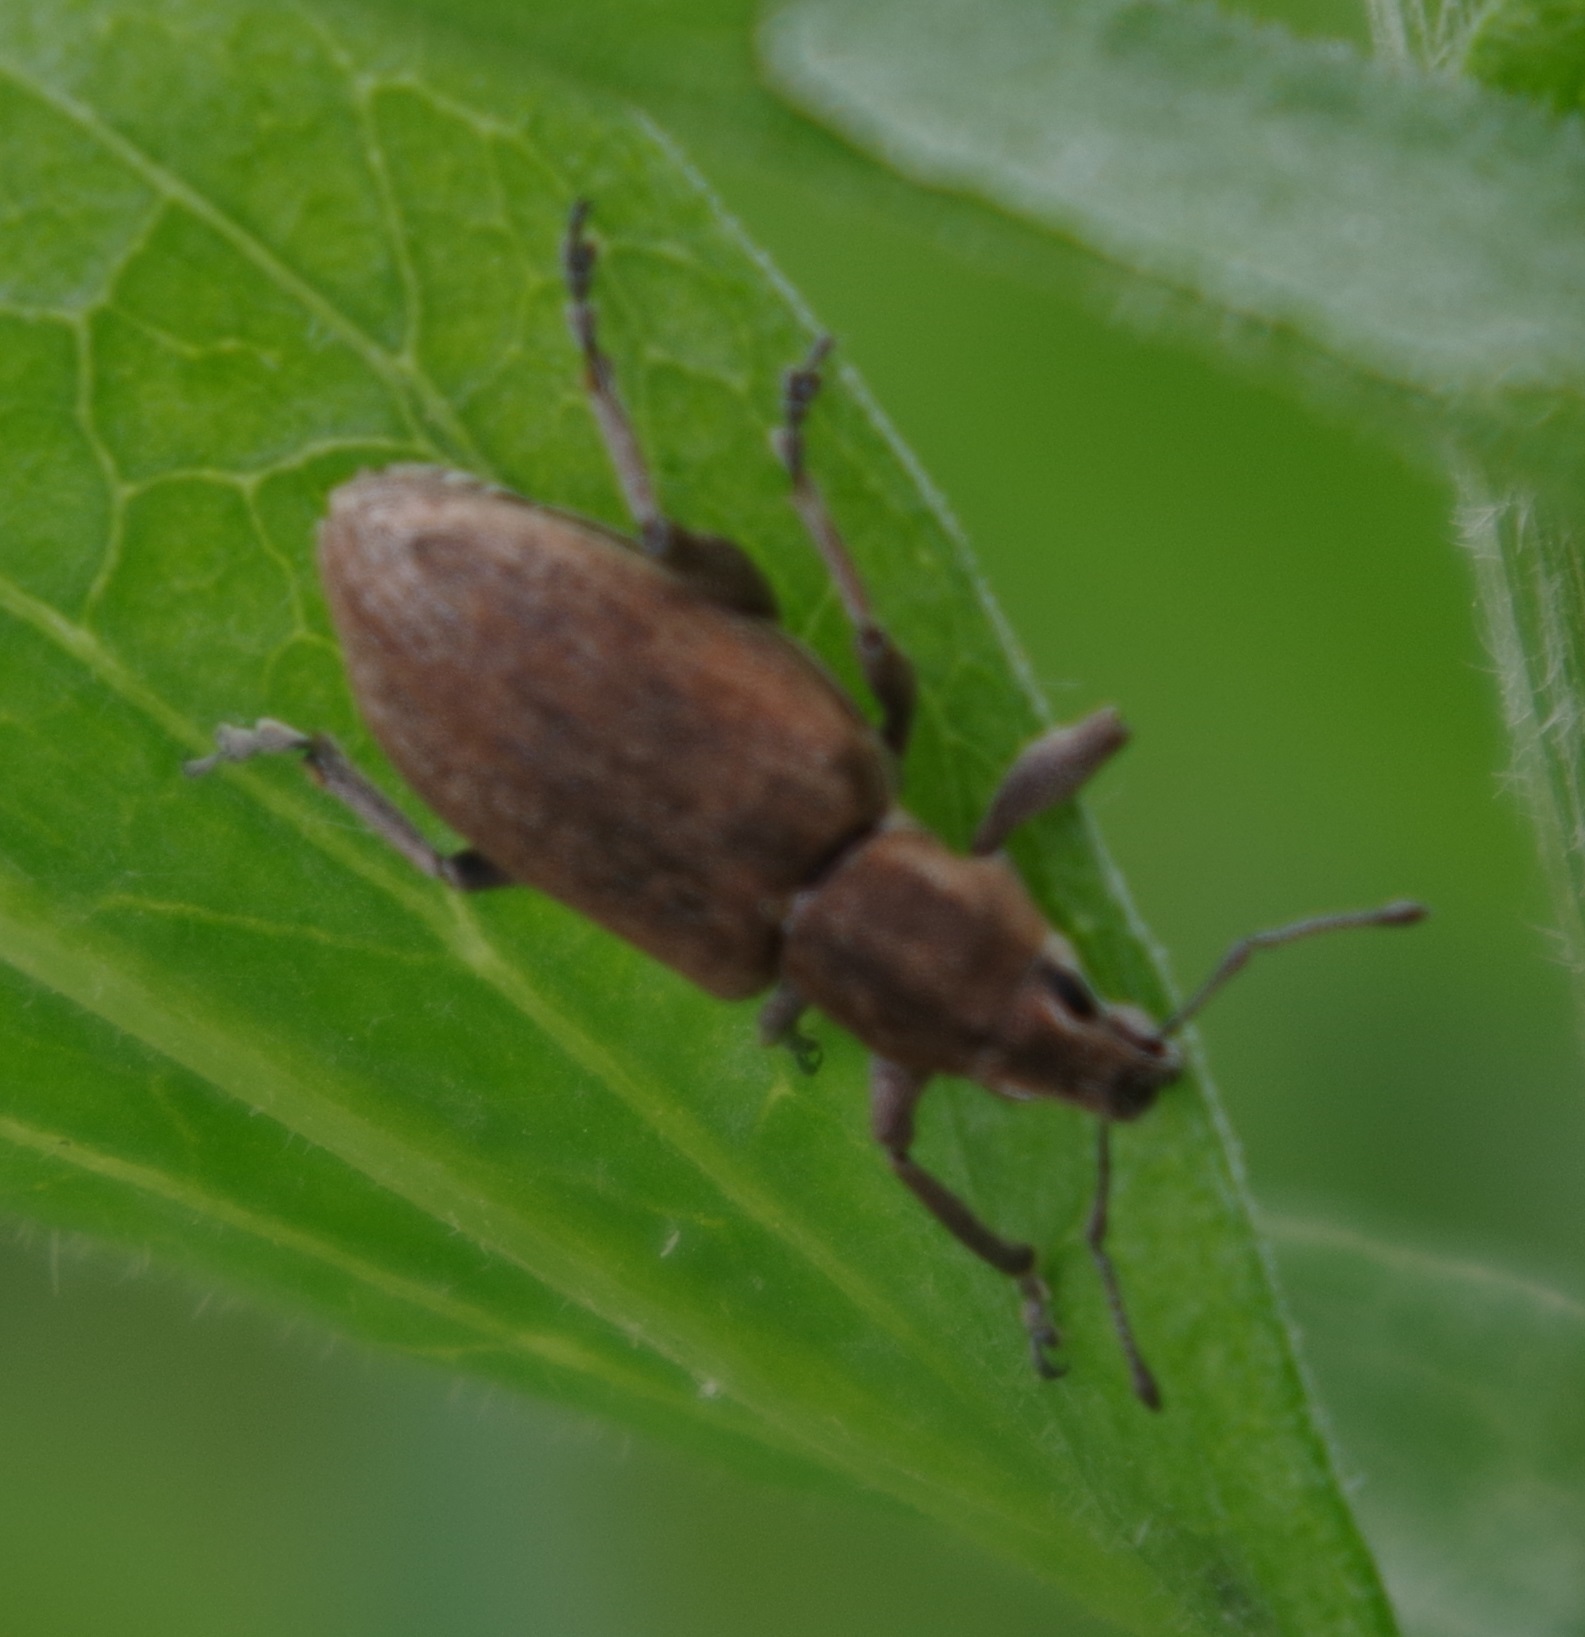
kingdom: Animalia
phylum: Arthropoda
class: Insecta
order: Coleoptera
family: Curculionidae
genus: Tanymecus
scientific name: Tanymecus palliatus
